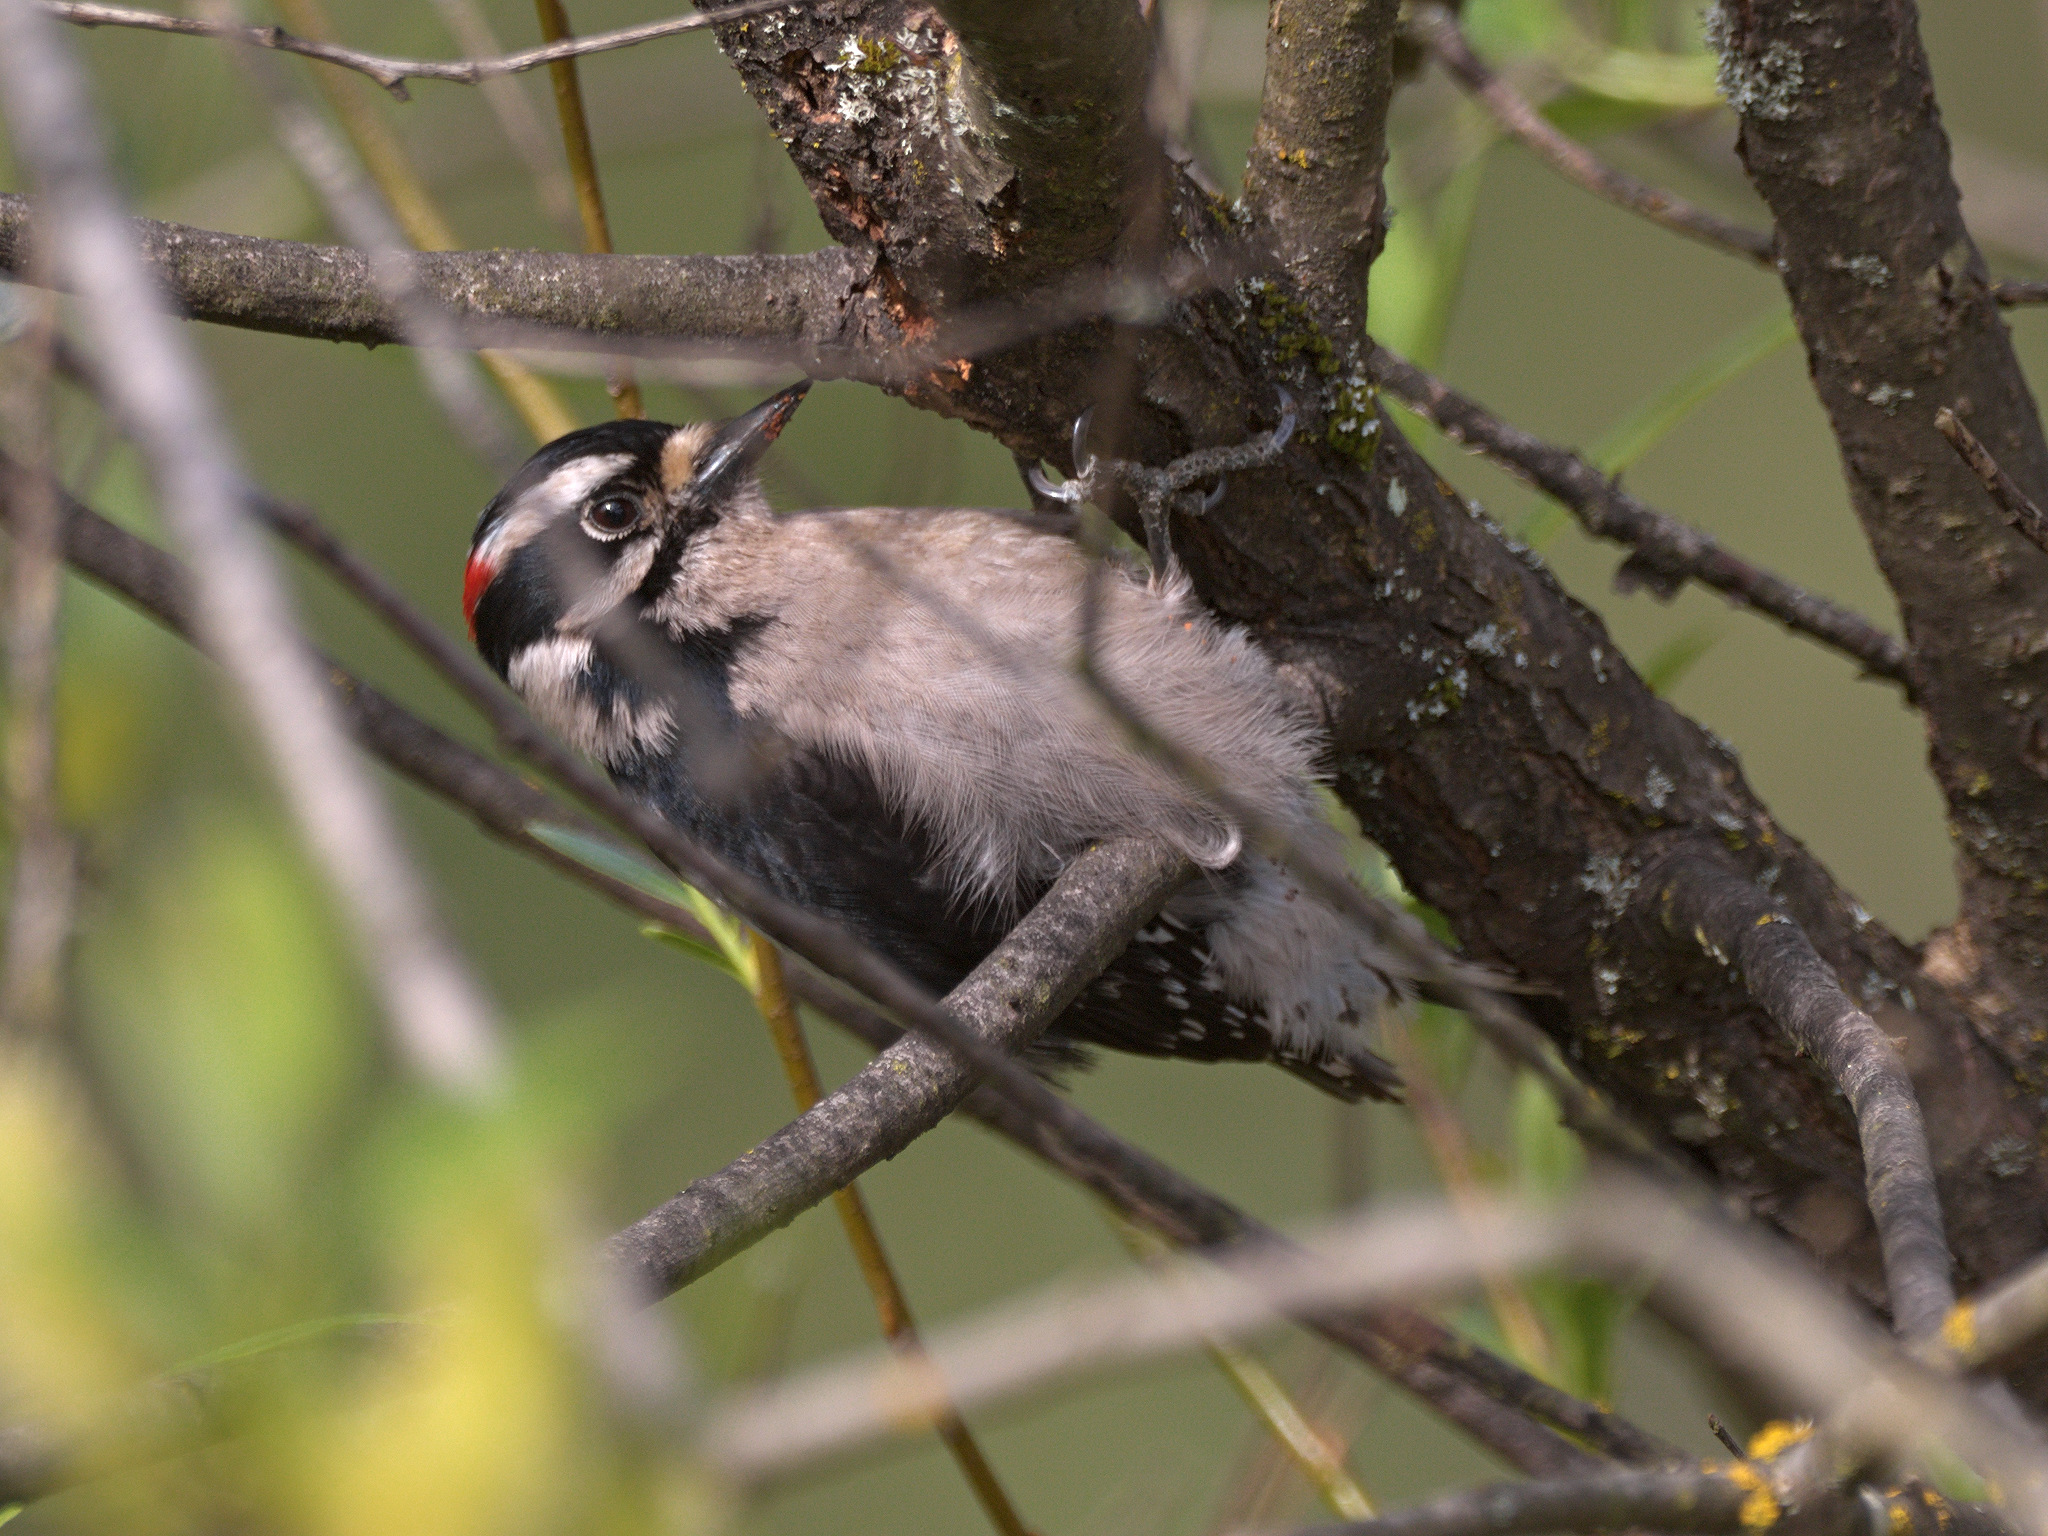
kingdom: Animalia
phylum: Chordata
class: Aves
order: Piciformes
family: Picidae
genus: Dryobates
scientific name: Dryobates pubescens
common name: Downy woodpecker
